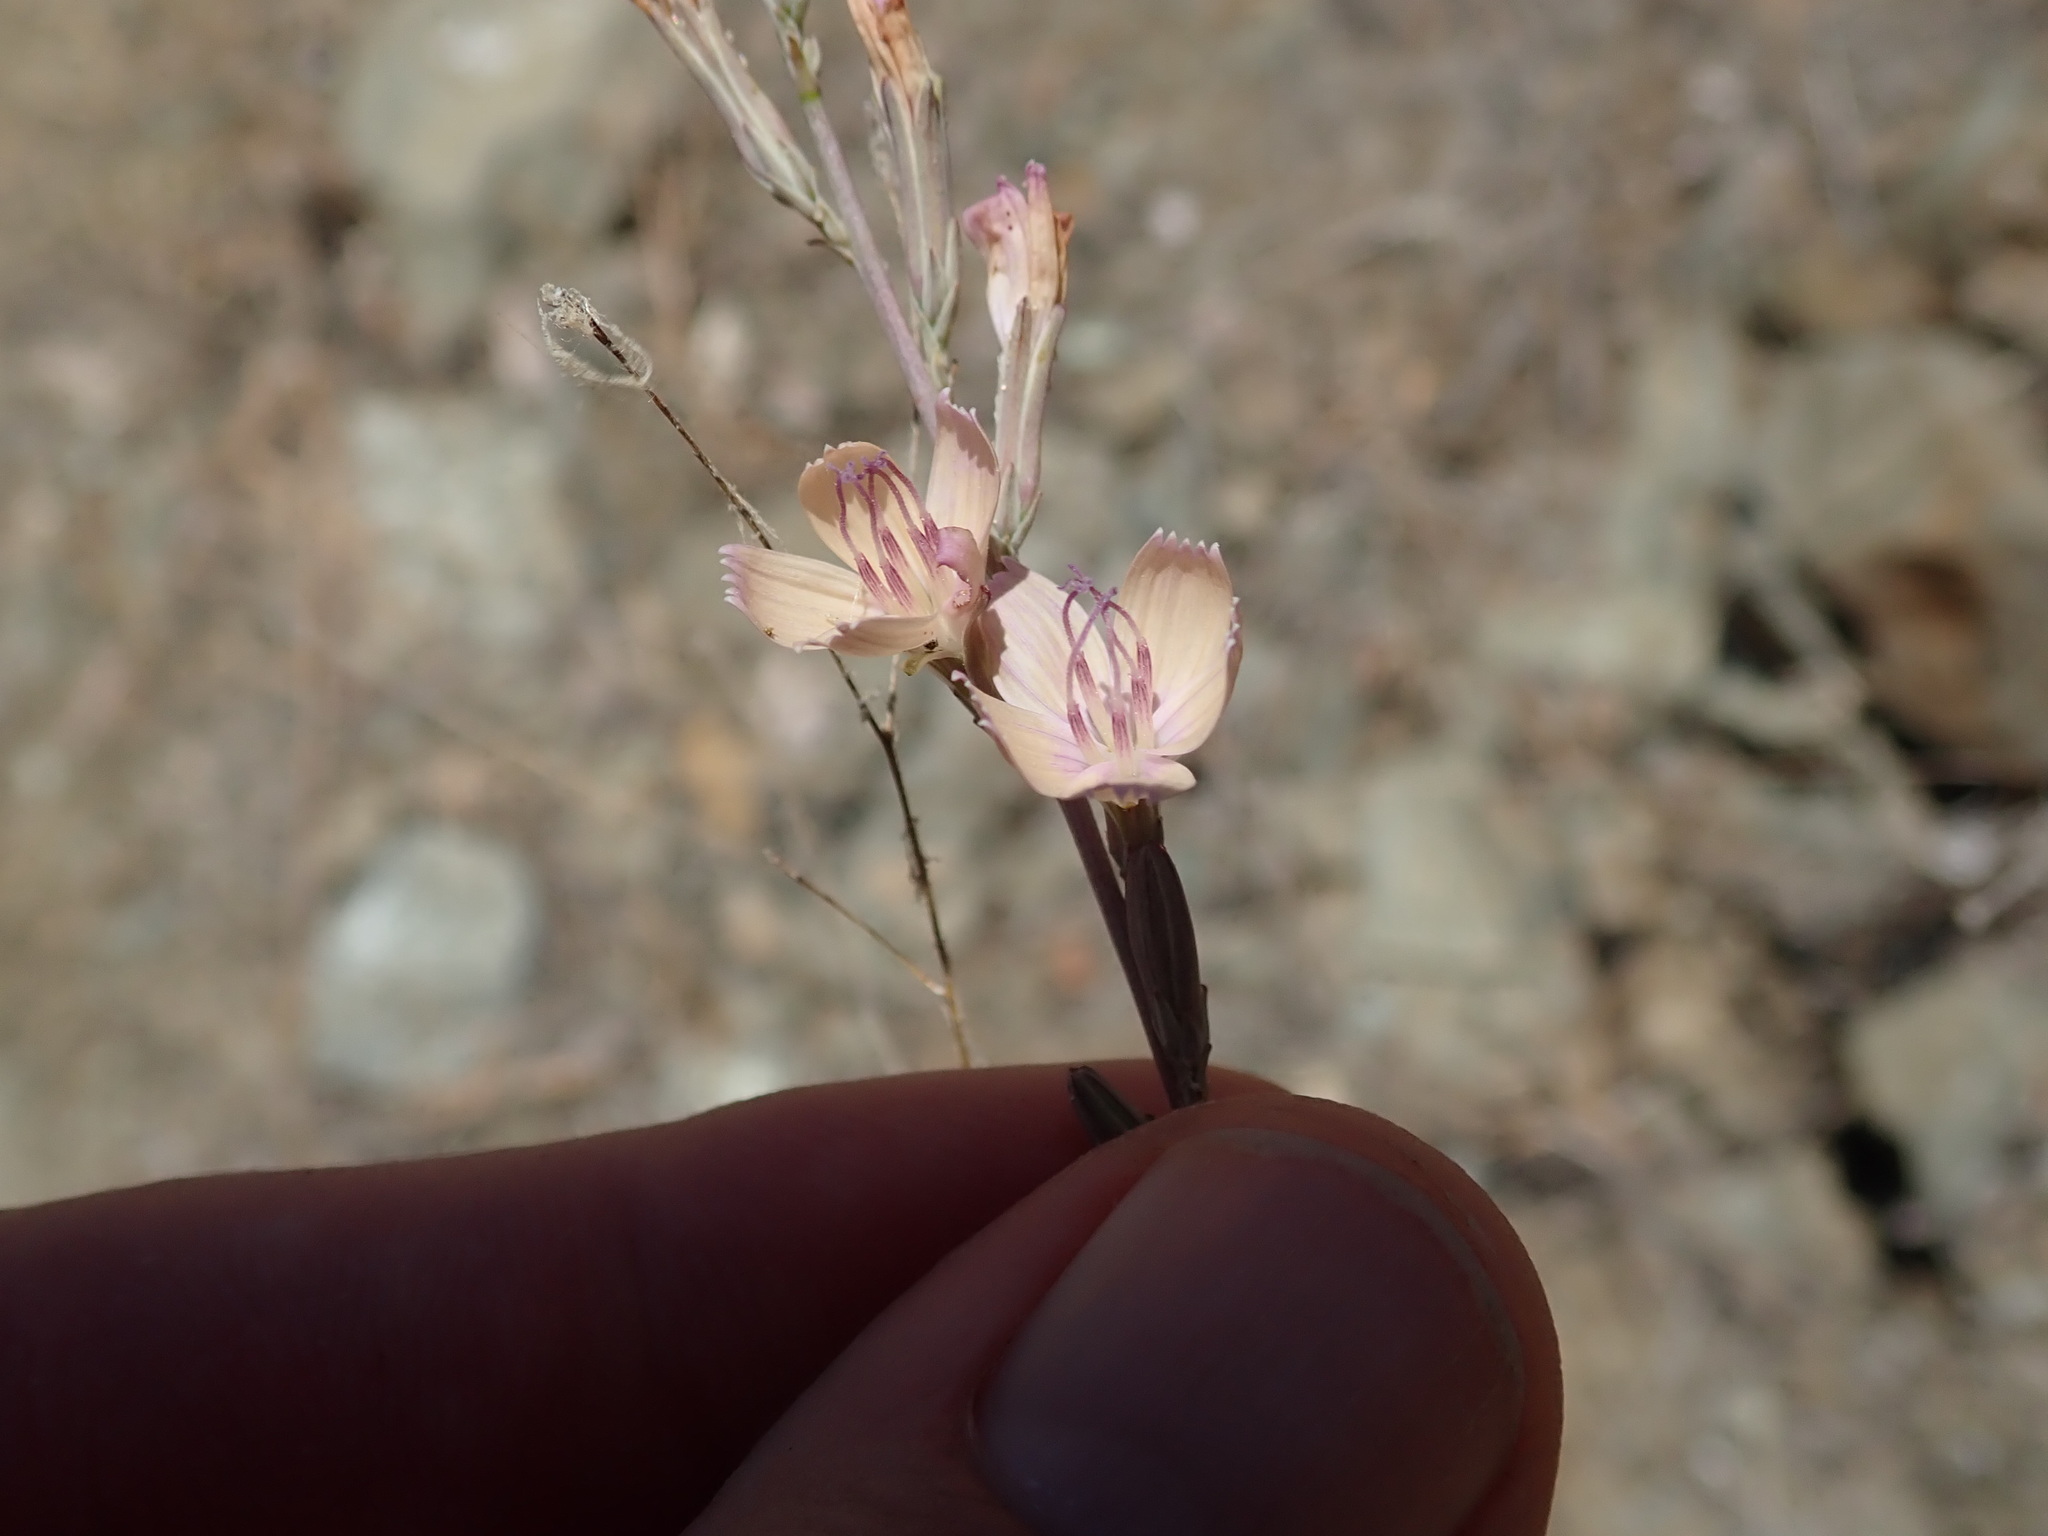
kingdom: Plantae
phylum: Tracheophyta
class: Magnoliopsida
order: Asterales
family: Asteraceae
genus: Stephanomeria
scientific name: Stephanomeria virgata
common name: Virgate wirelettuce
